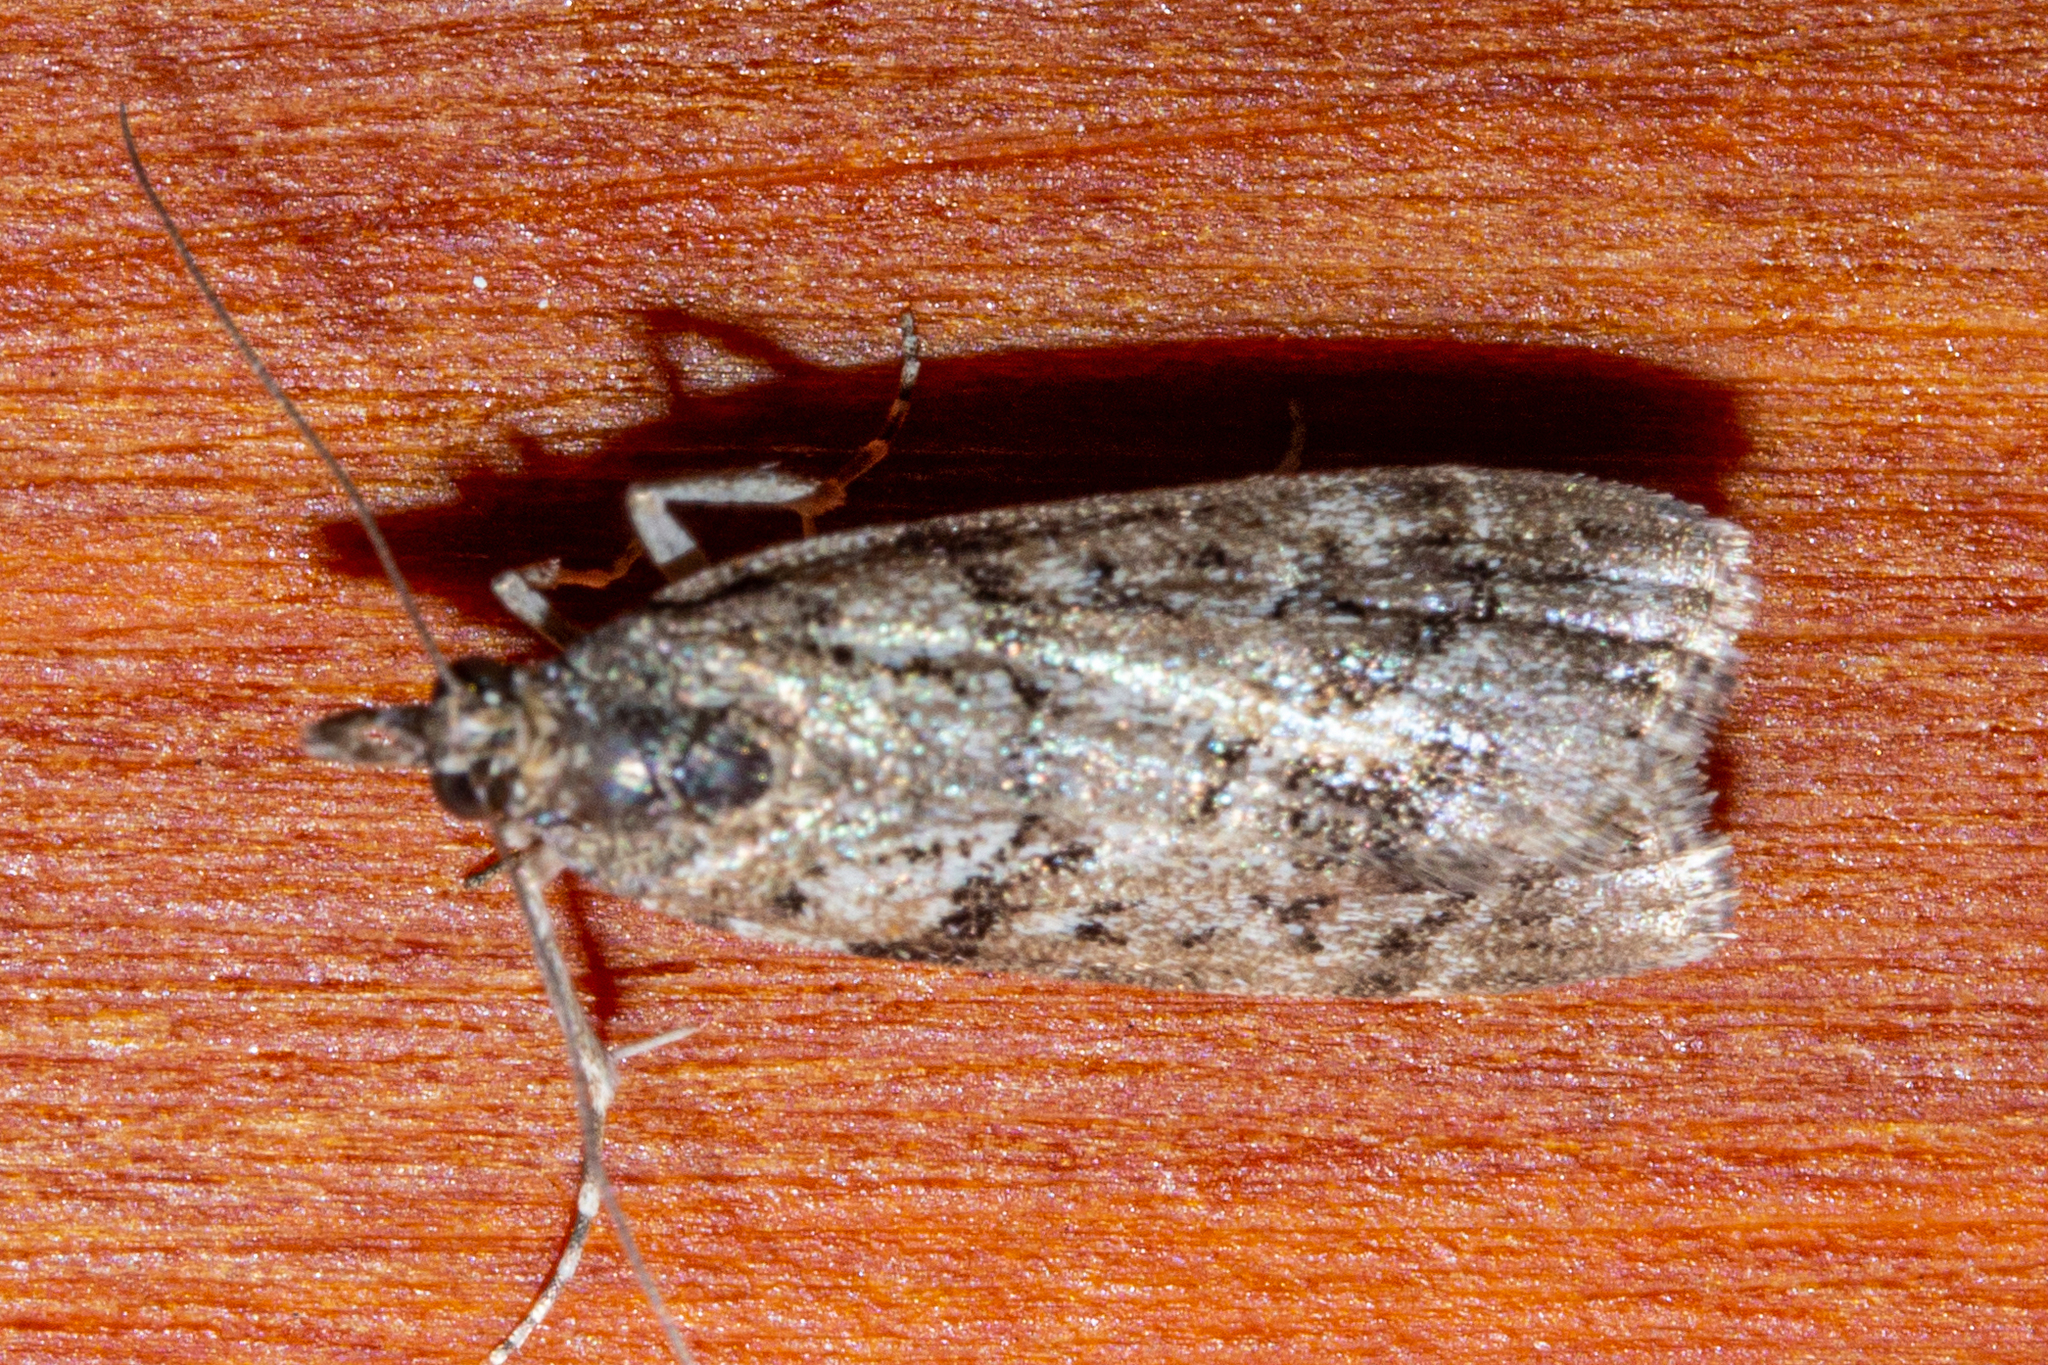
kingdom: Animalia
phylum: Arthropoda
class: Insecta
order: Lepidoptera
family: Crambidae
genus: Eudonia
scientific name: Eudonia submarginalis
